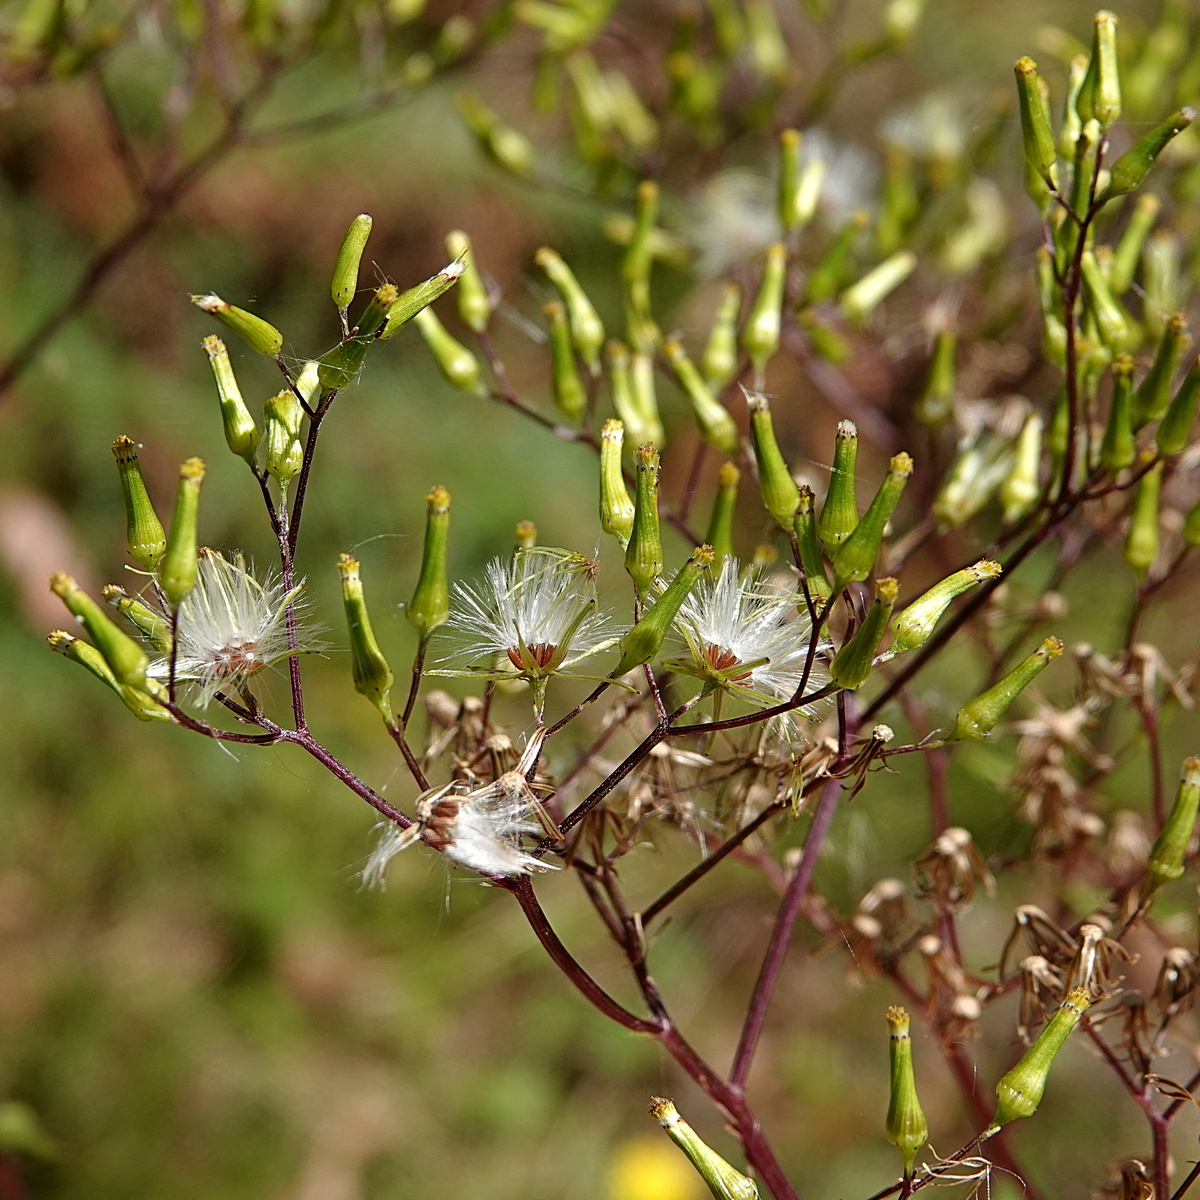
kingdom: Plantae
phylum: Tracheophyta
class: Magnoliopsida
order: Asterales
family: Asteraceae
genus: Senecio
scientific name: Senecio minimus
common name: Toothed fireweed
